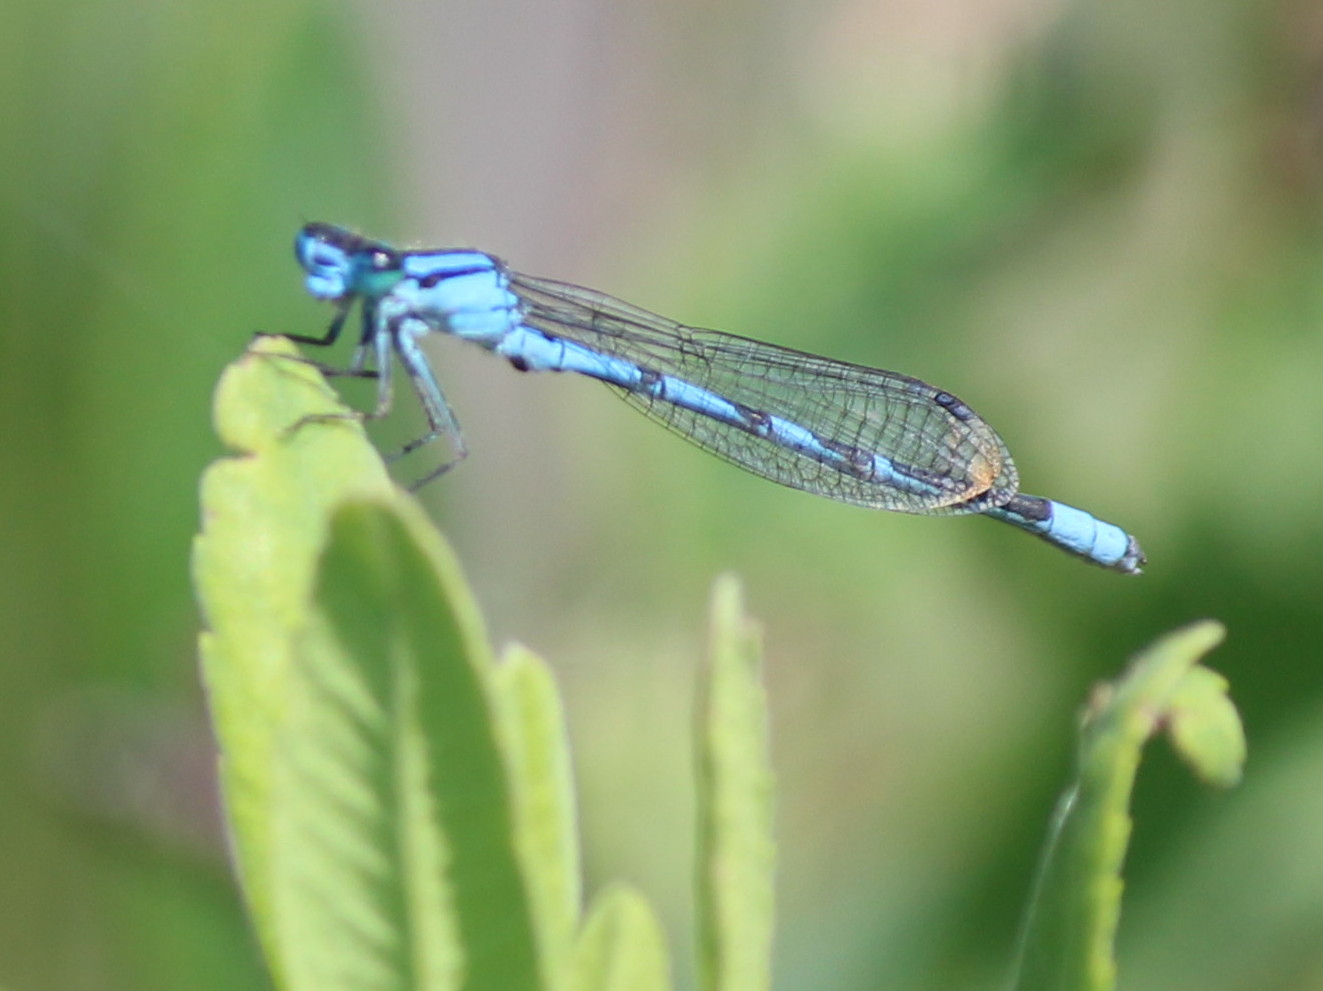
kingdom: Animalia
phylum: Arthropoda
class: Insecta
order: Odonata
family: Coenagrionidae
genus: Enallagma
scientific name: Enallagma hageni
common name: Hagen's bluet
